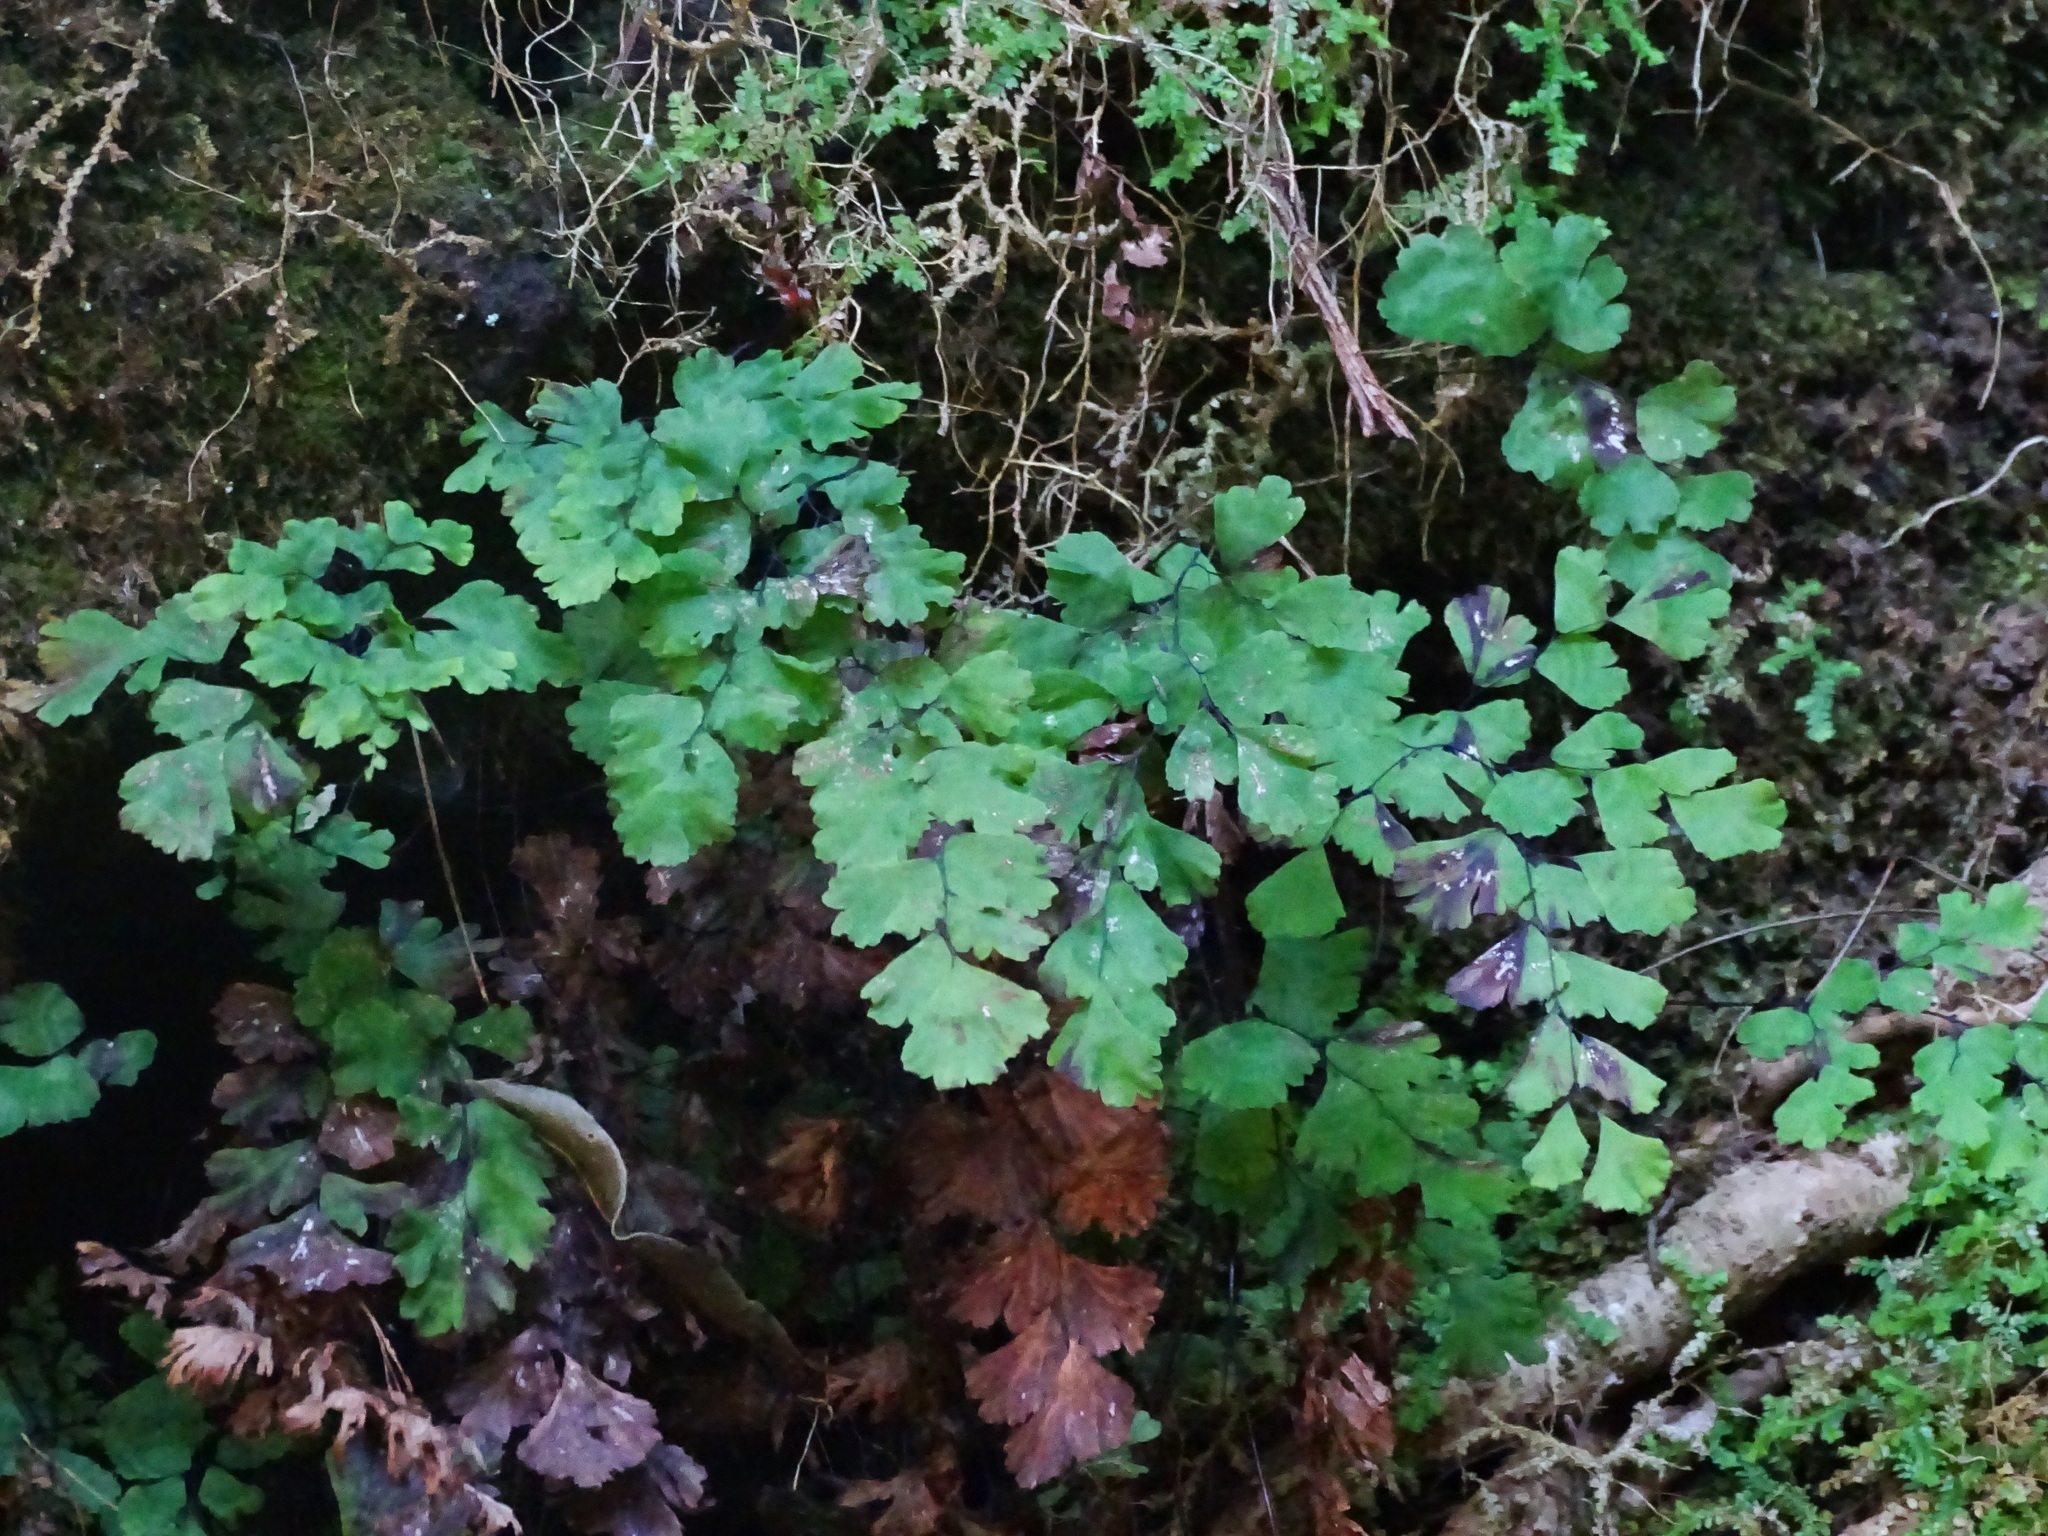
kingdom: Plantae
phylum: Tracheophyta
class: Polypodiopsida
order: Polypodiales
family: Pteridaceae
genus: Adiantum
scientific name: Adiantum capillus-veneris
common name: Maidenhair fern
